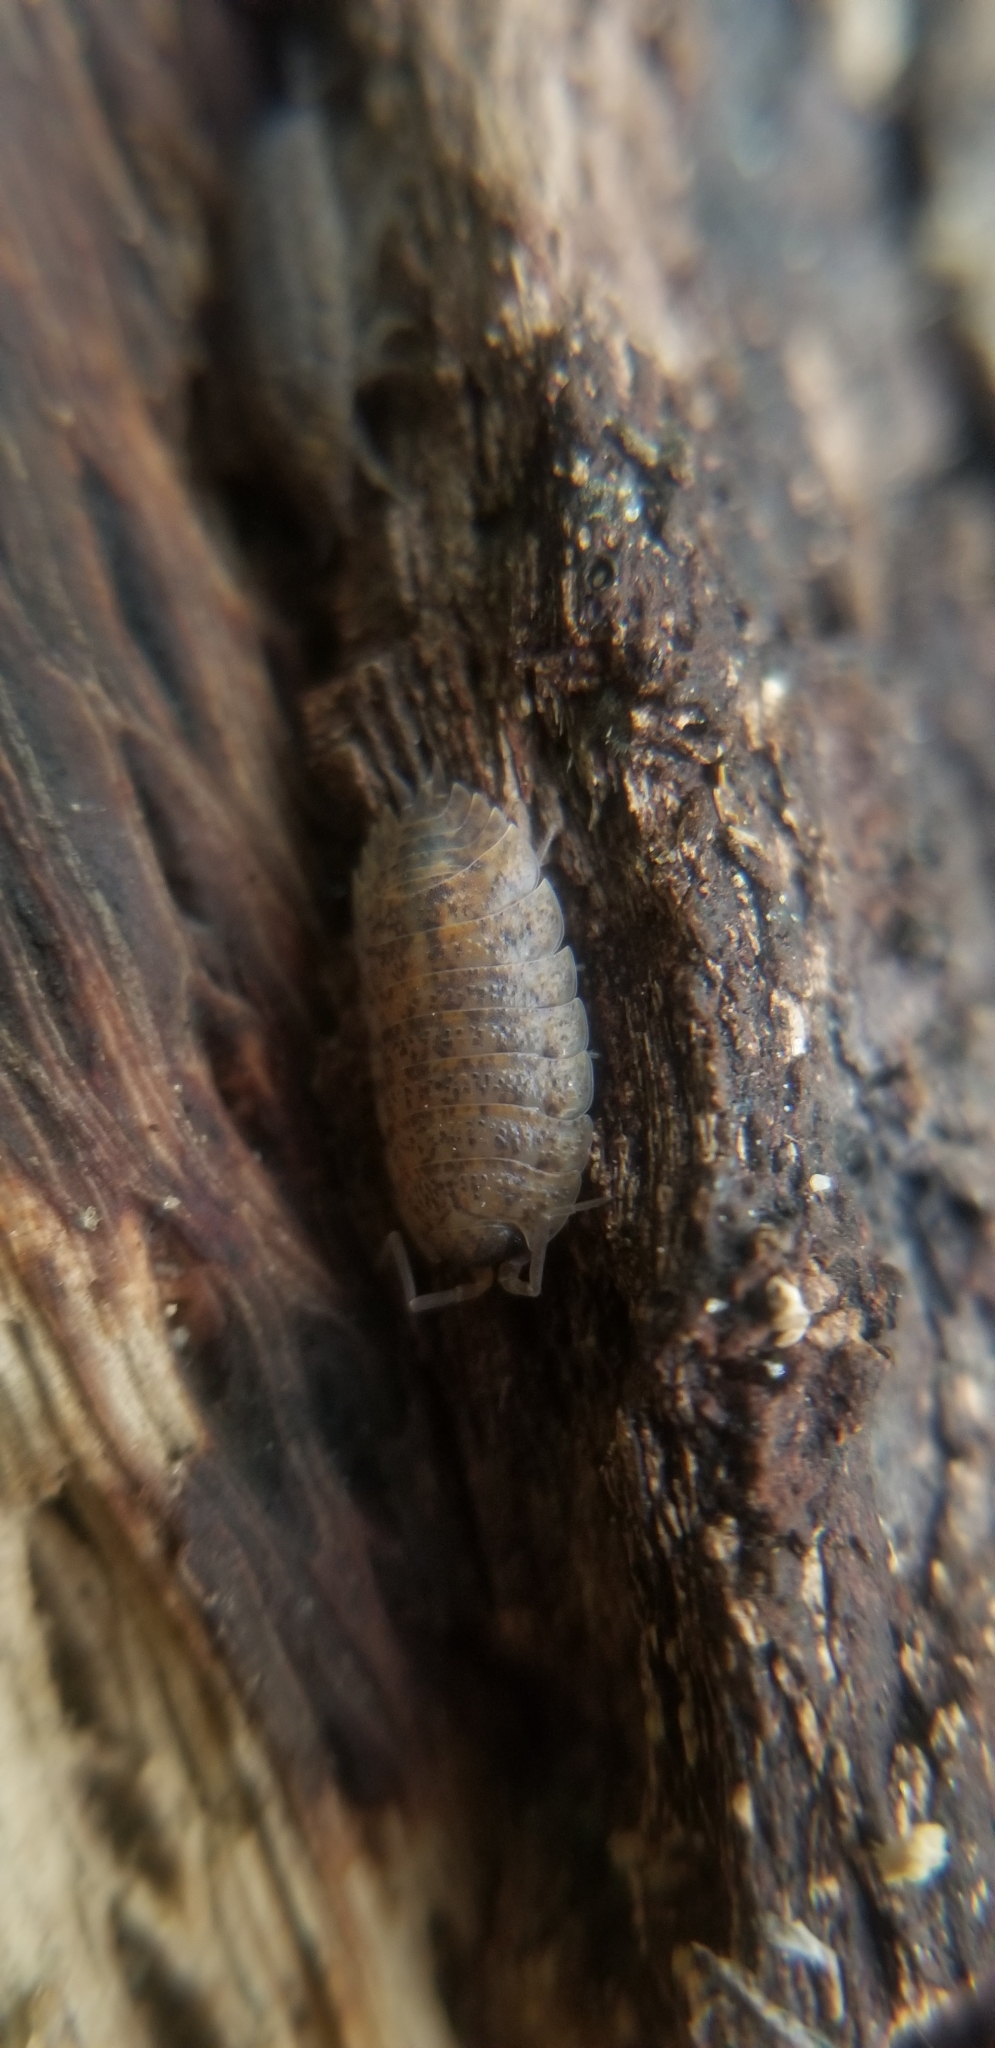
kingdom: Animalia
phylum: Arthropoda
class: Malacostraca
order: Isopoda
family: Trachelipodidae
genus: Trachelipus
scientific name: Trachelipus rathkii
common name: Isopod
